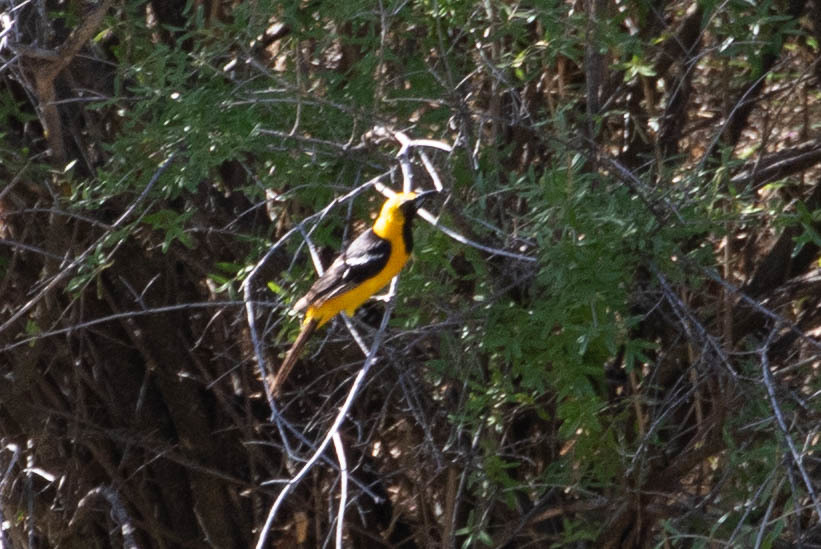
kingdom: Animalia
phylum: Chordata
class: Aves
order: Passeriformes
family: Icteridae
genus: Icterus
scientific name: Icterus cucullatus
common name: Hooded oriole
